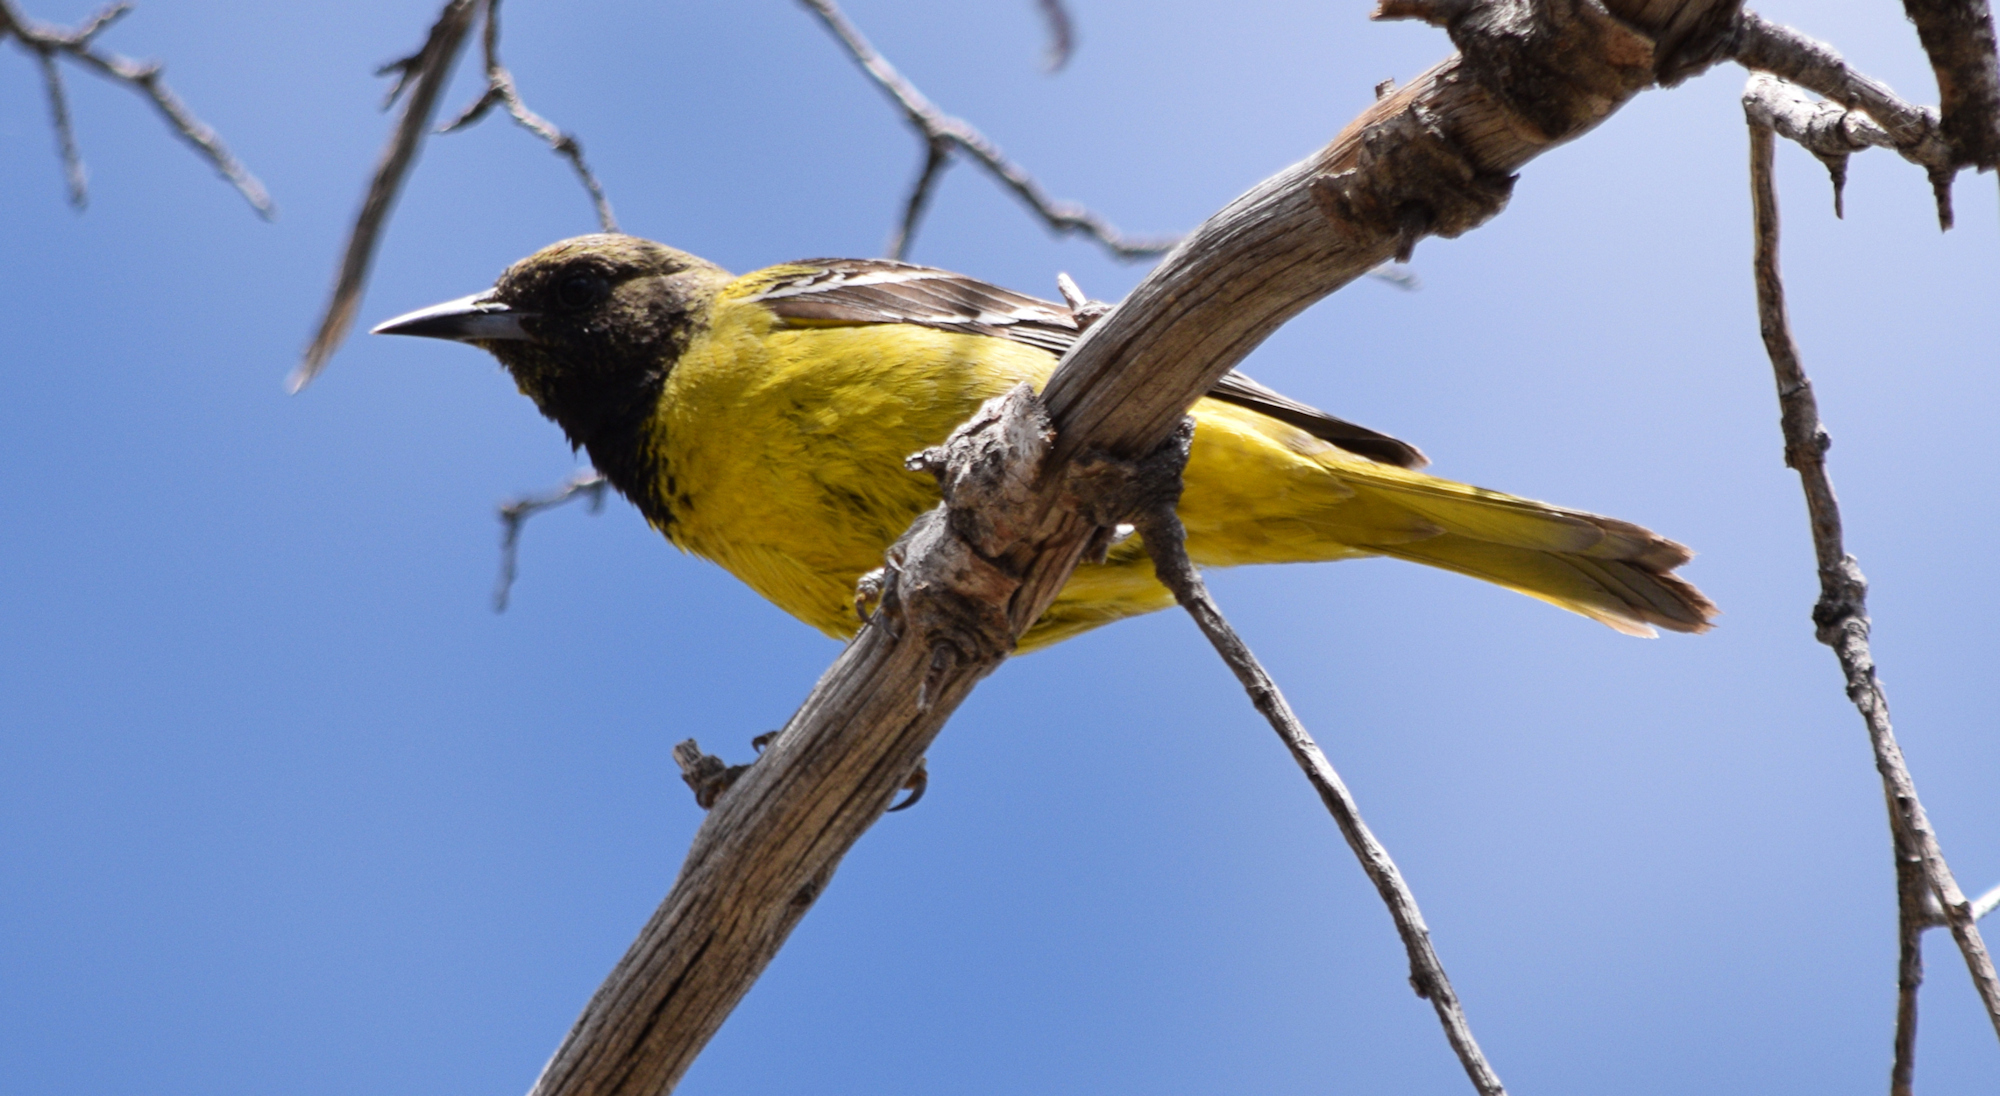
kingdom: Animalia
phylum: Chordata
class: Aves
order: Passeriformes
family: Icteridae
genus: Icterus
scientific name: Icterus parisorum
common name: Scott's oriole
